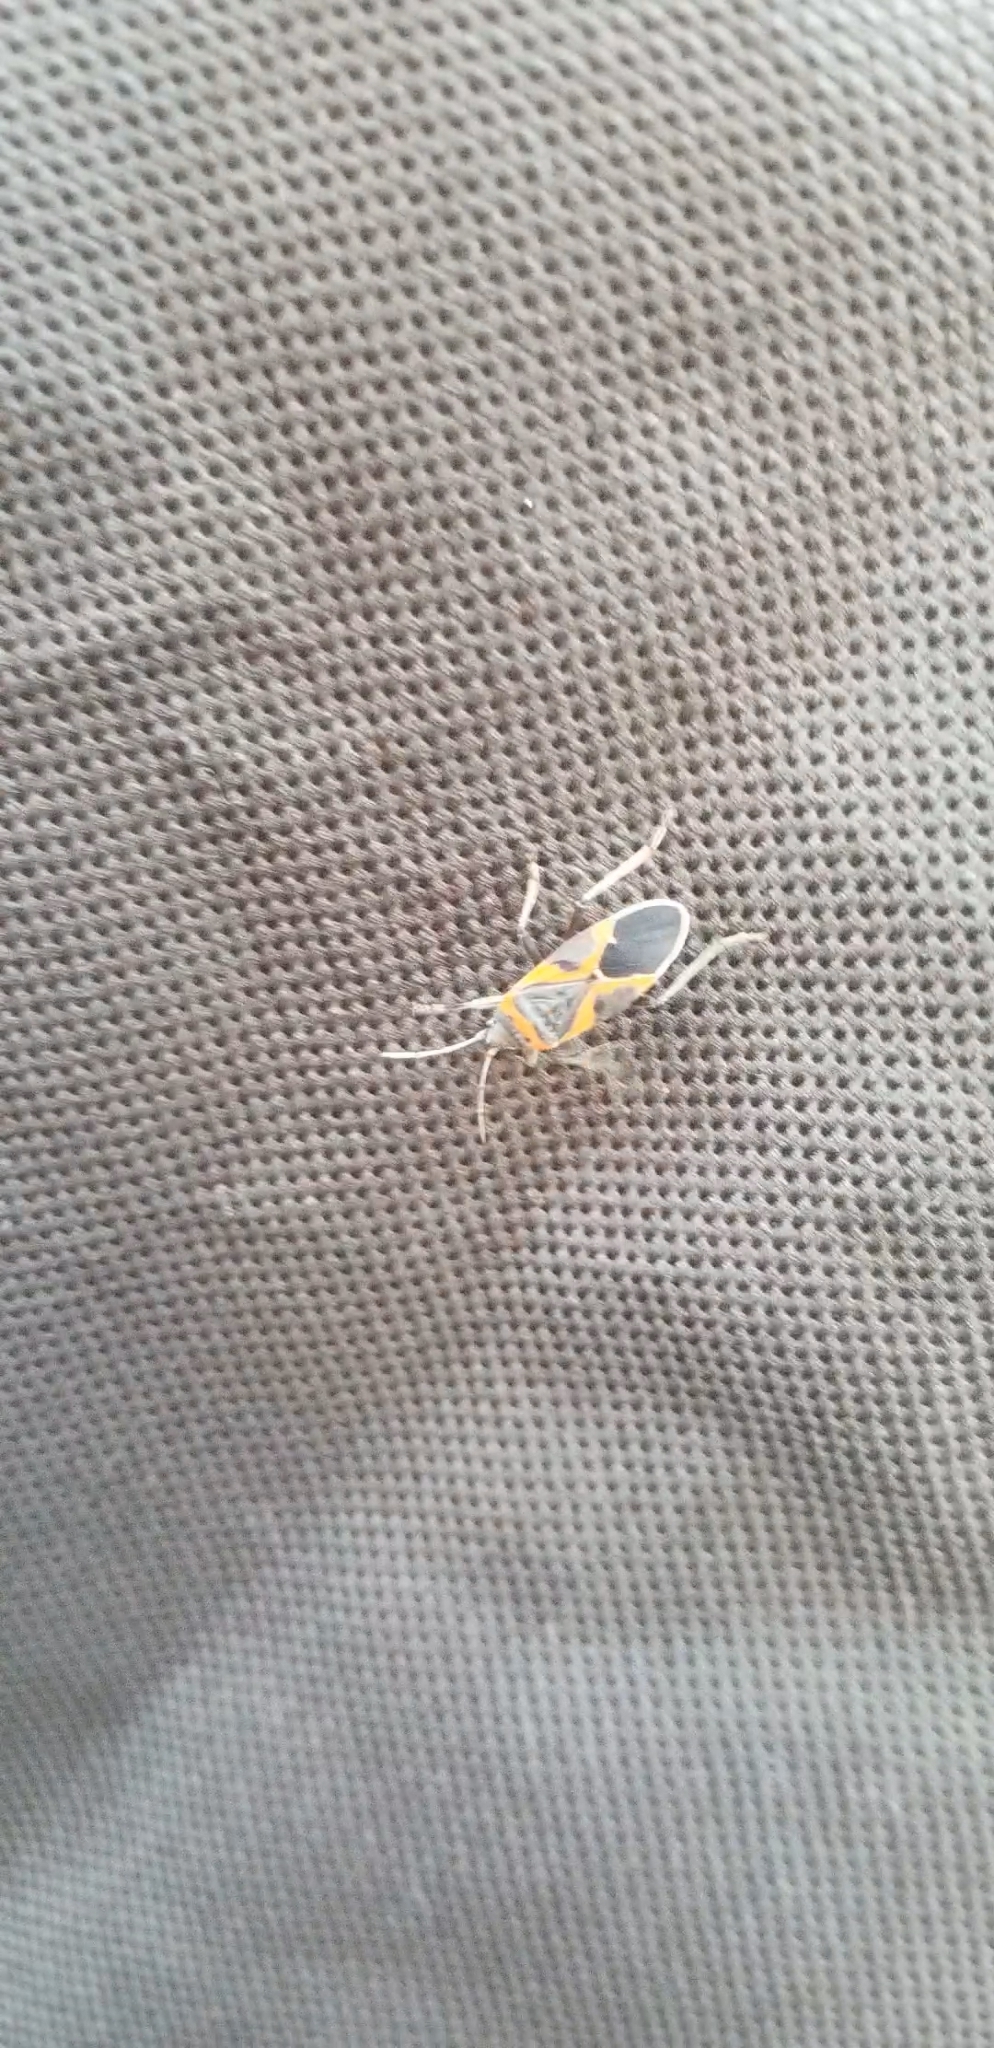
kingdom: Animalia
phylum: Arthropoda
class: Insecta
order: Hemiptera
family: Lygaeidae
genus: Lygaeus
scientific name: Lygaeus kalmii
